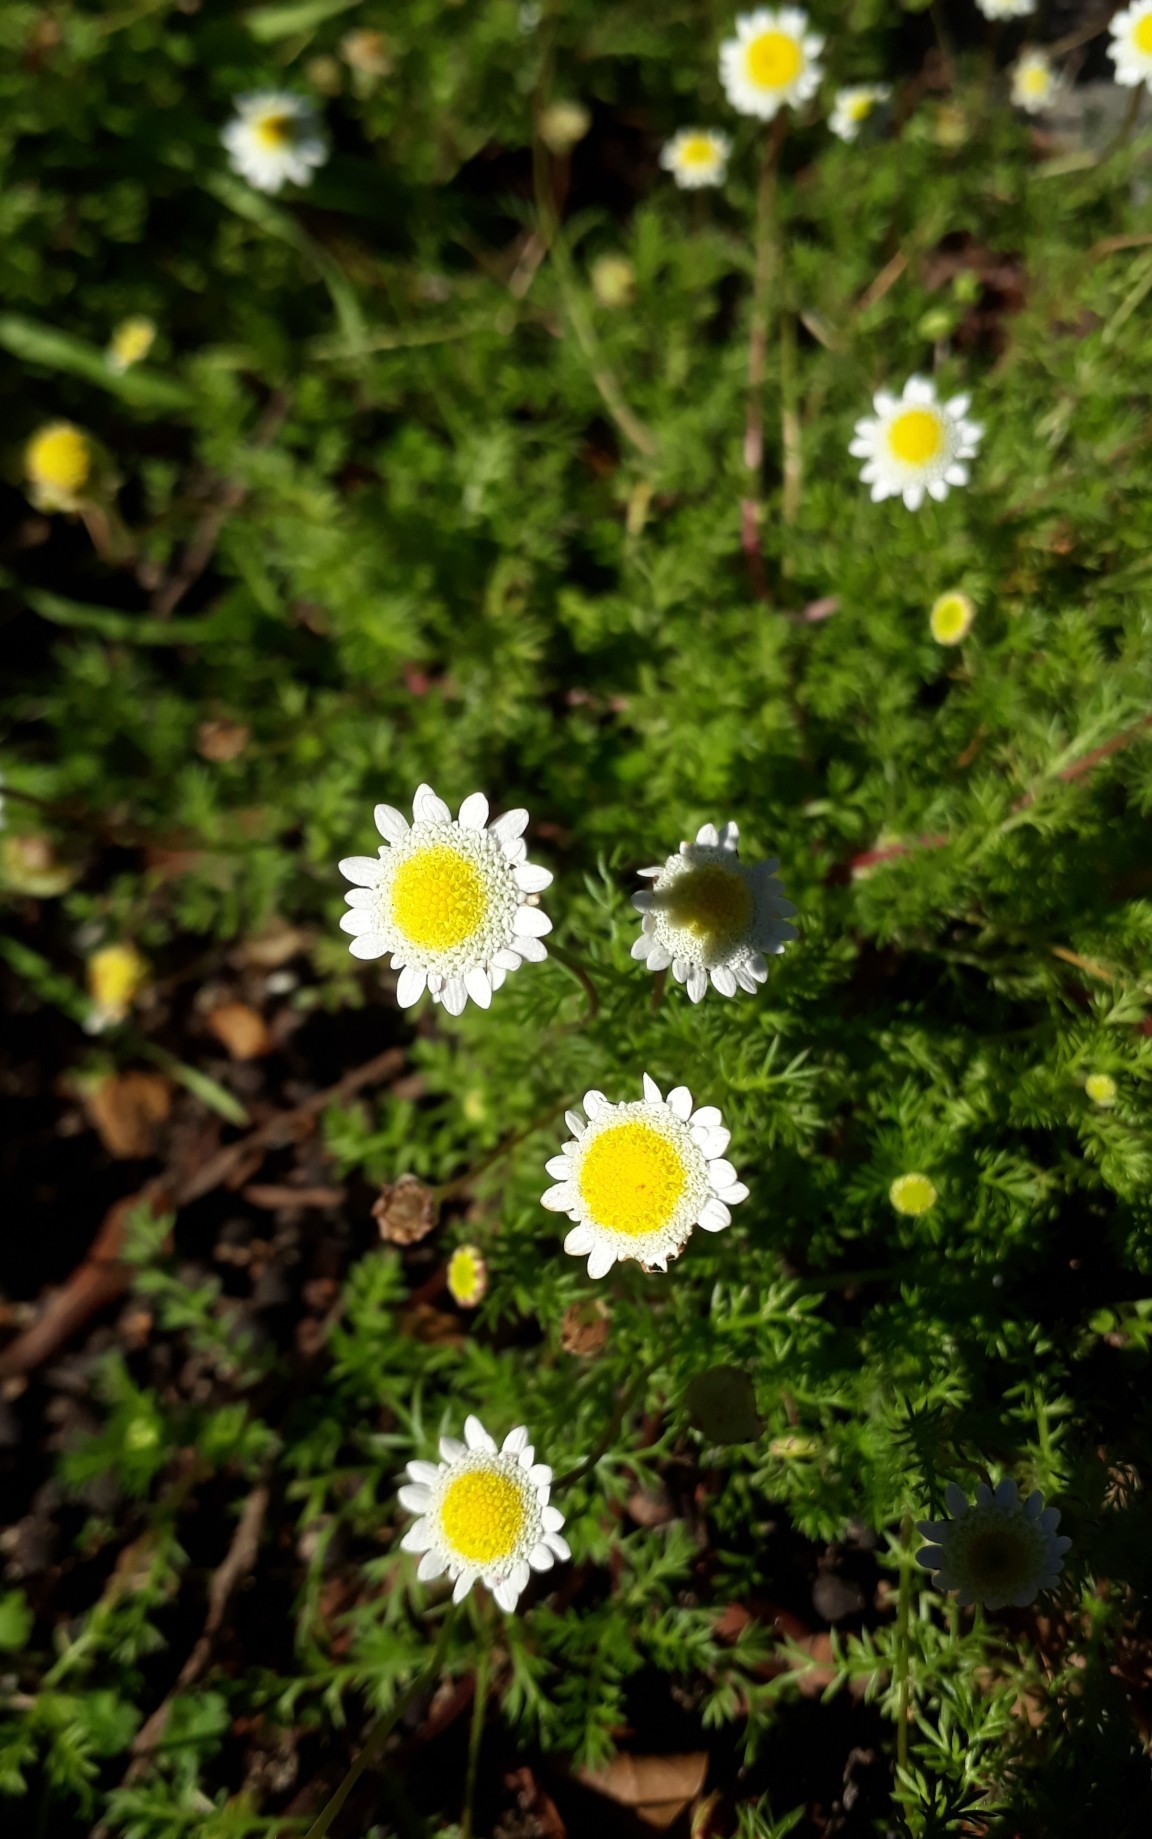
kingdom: Plantae
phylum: Tracheophyta
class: Magnoliopsida
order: Asterales
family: Asteraceae
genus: Cotula
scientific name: Cotula turbinata
